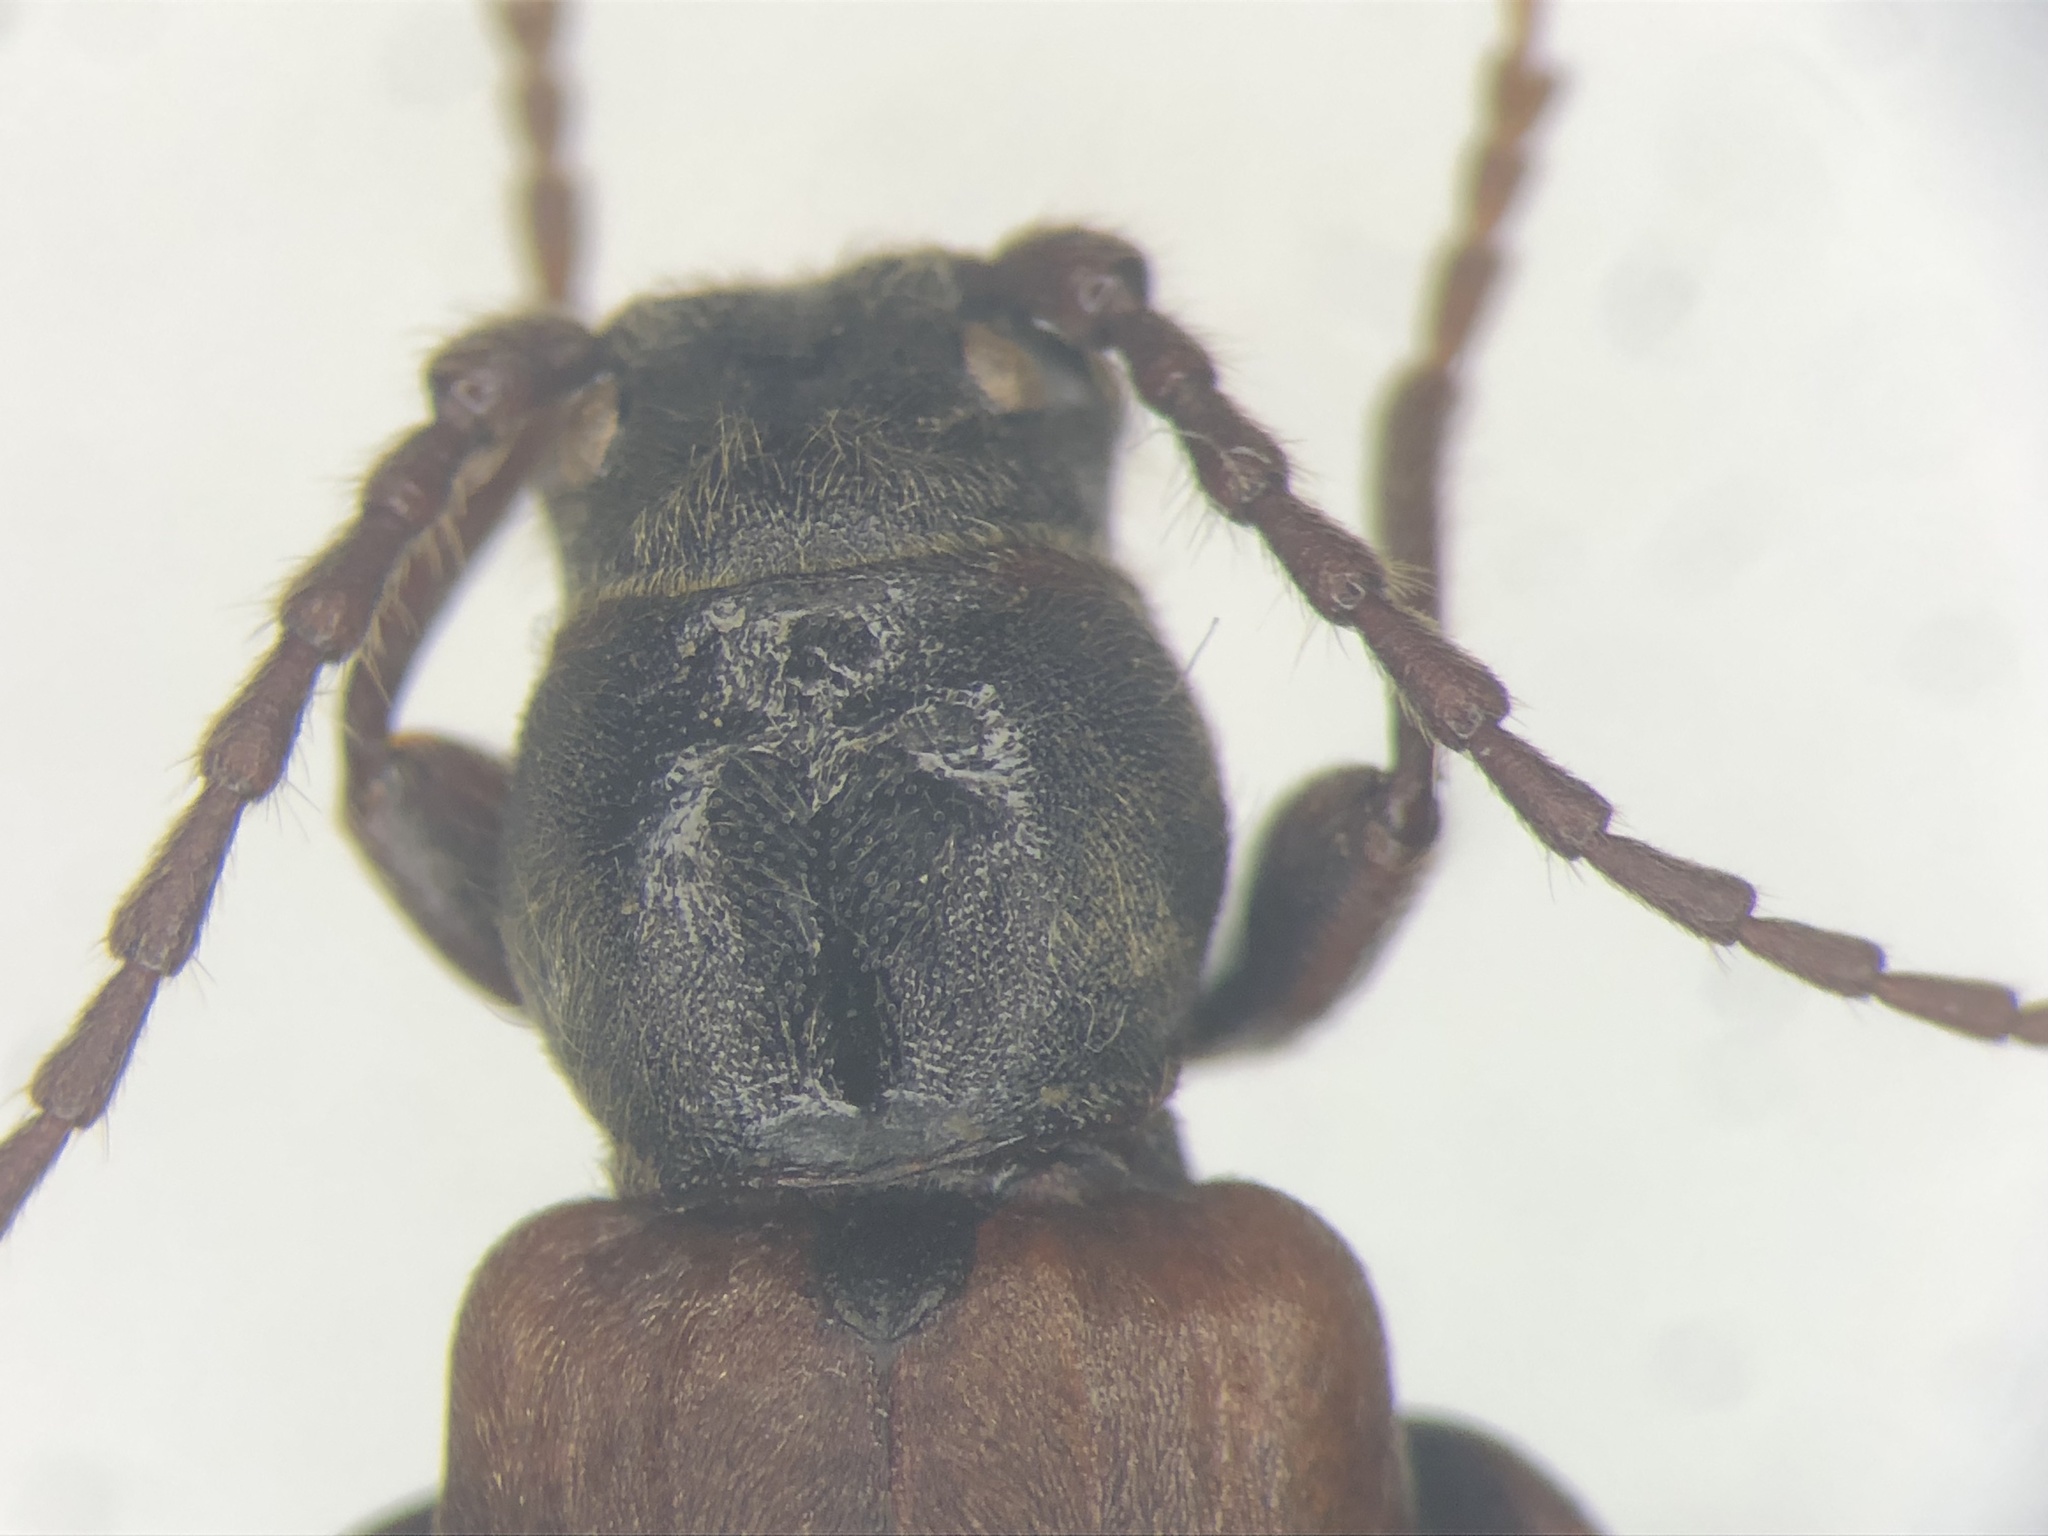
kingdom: Animalia
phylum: Arthropoda
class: Insecta
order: Coleoptera
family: Cerambycidae
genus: Tetropium
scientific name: Tetropium cinnamopterum
